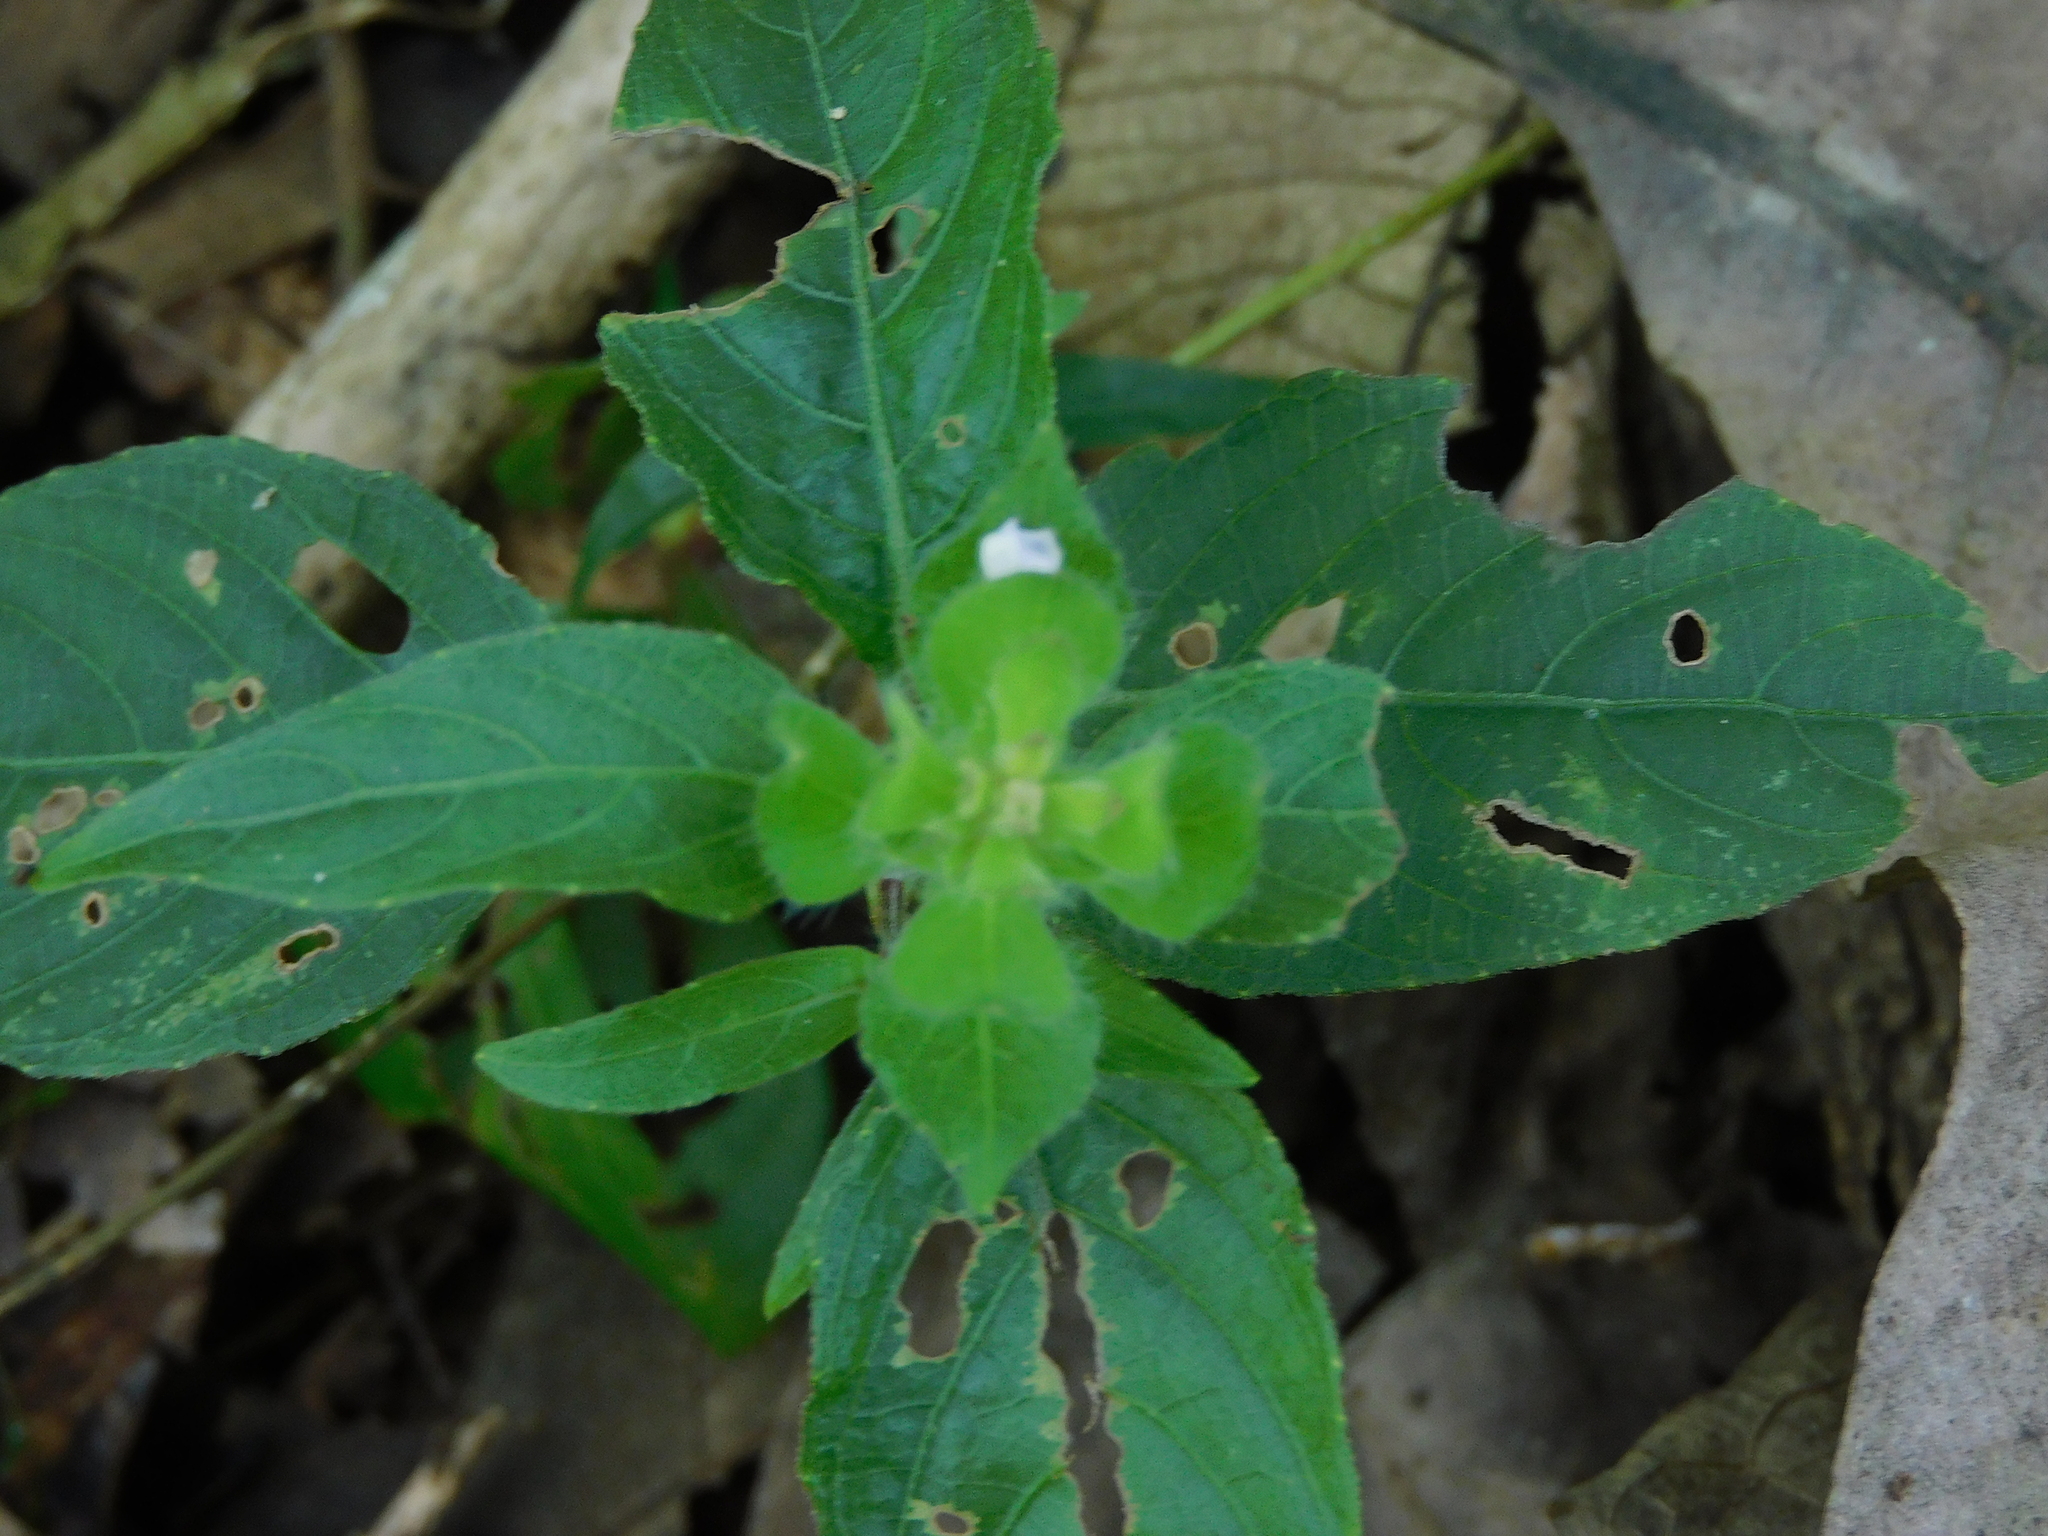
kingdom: Plantae
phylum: Tracheophyta
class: Magnoliopsida
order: Lamiales
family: Acanthaceae
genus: Ruellia
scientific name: Ruellia blechum
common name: Browne's blechum
